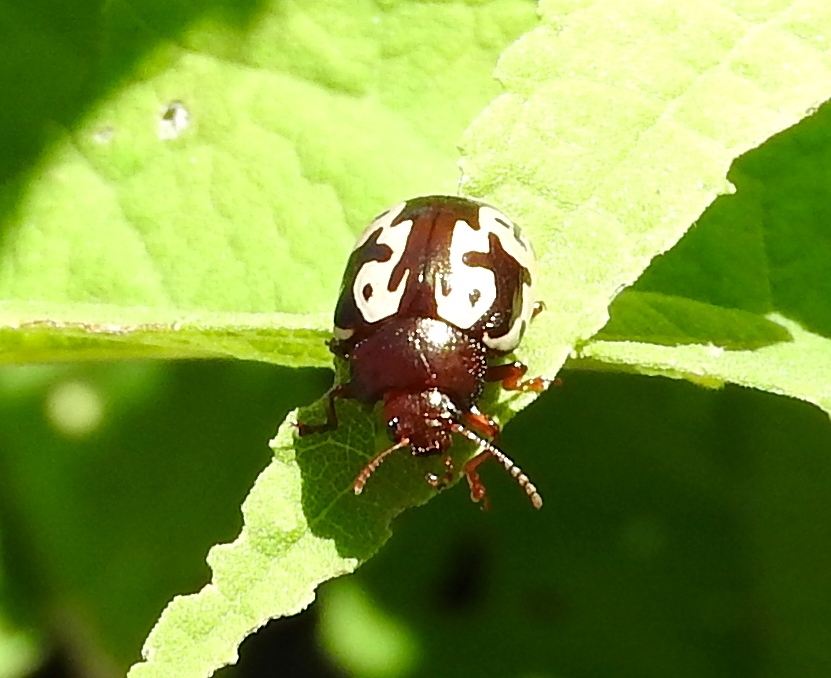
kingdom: Animalia
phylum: Arthropoda
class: Insecta
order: Coleoptera
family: Chrysomelidae
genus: Calligrapha
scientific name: Calligrapha intermedia
